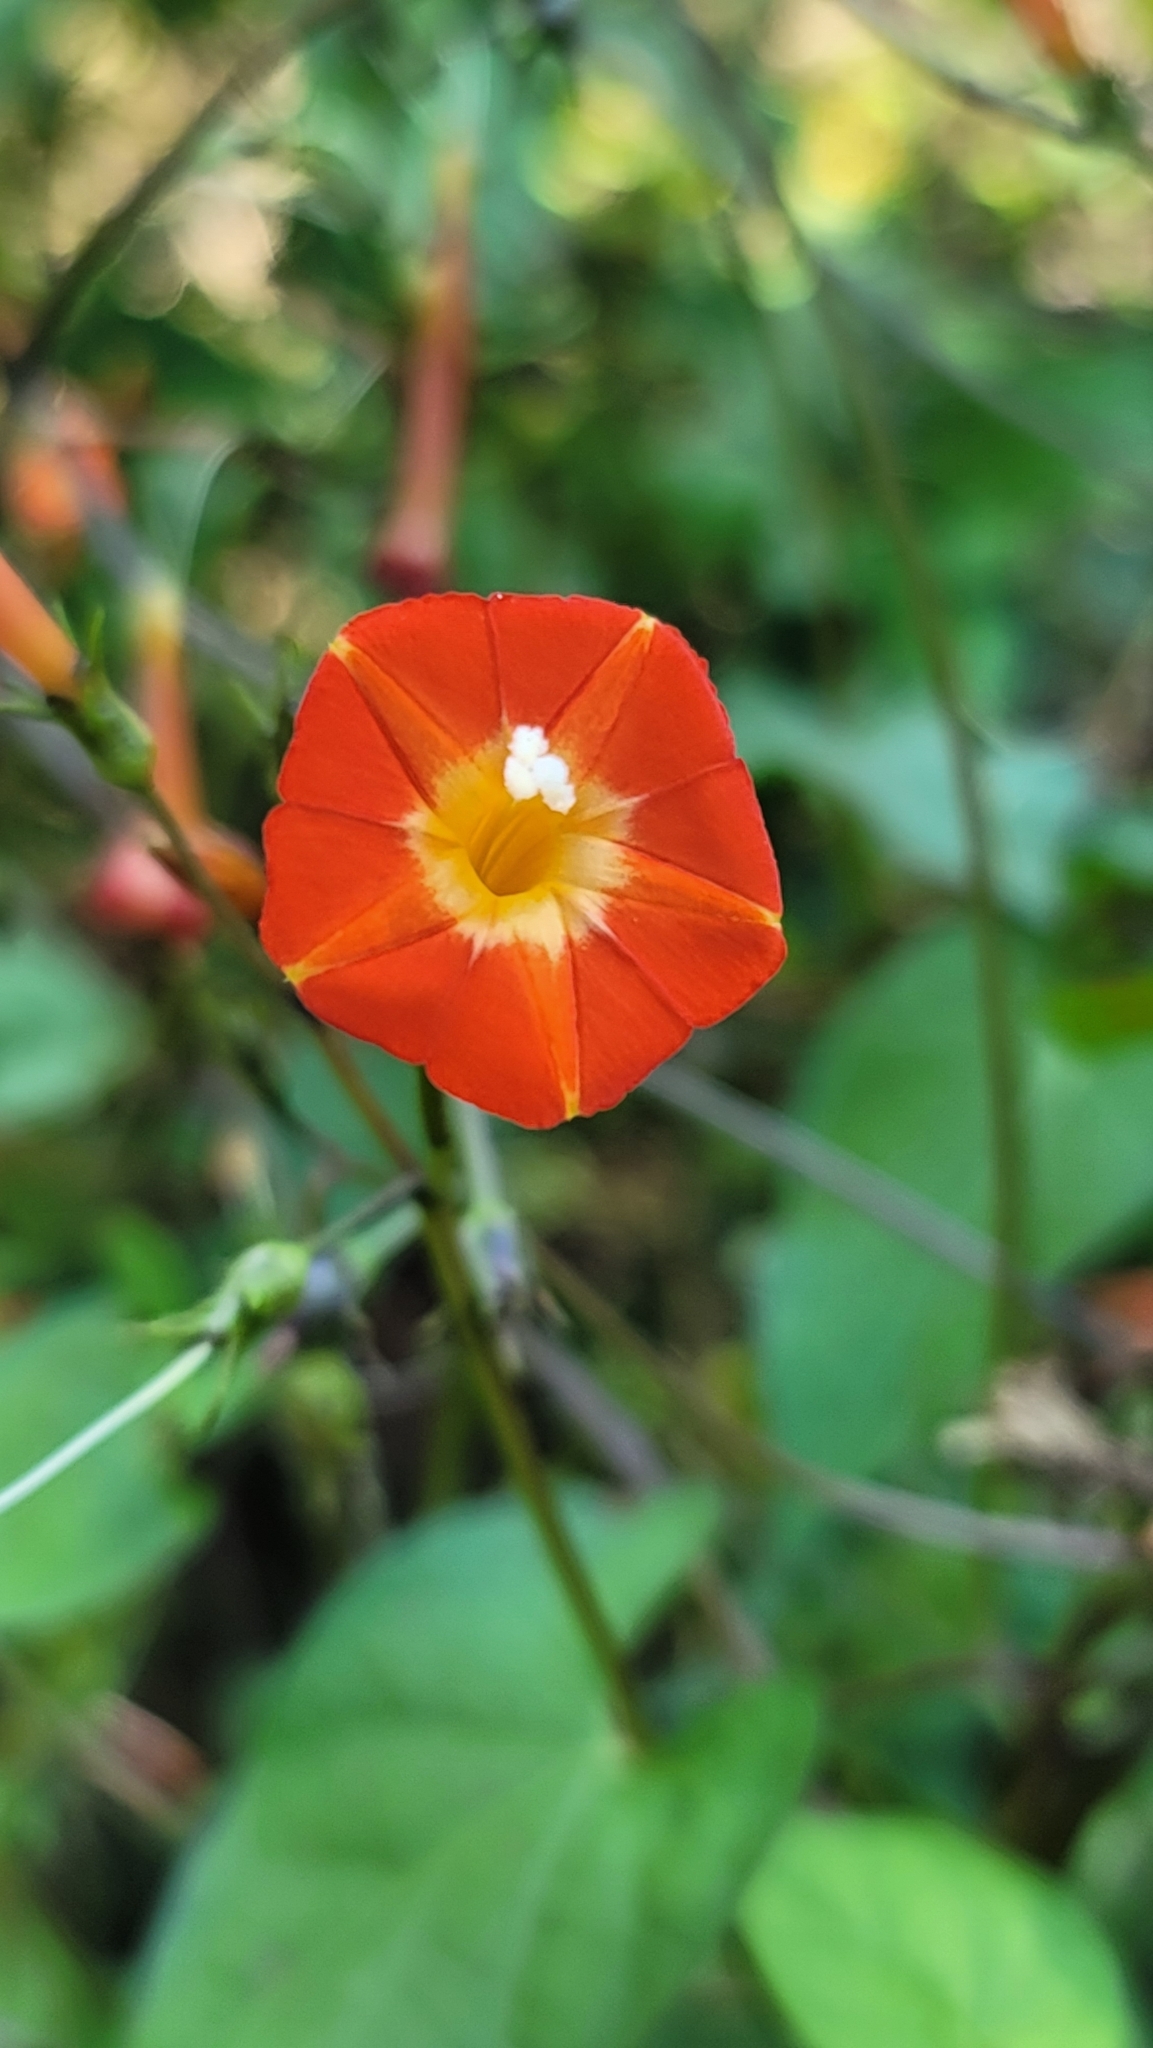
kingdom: Plantae
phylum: Tracheophyta
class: Magnoliopsida
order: Solanales
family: Convolvulaceae
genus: Ipomoea
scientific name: Ipomoea coccinea
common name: Red morning-glory
